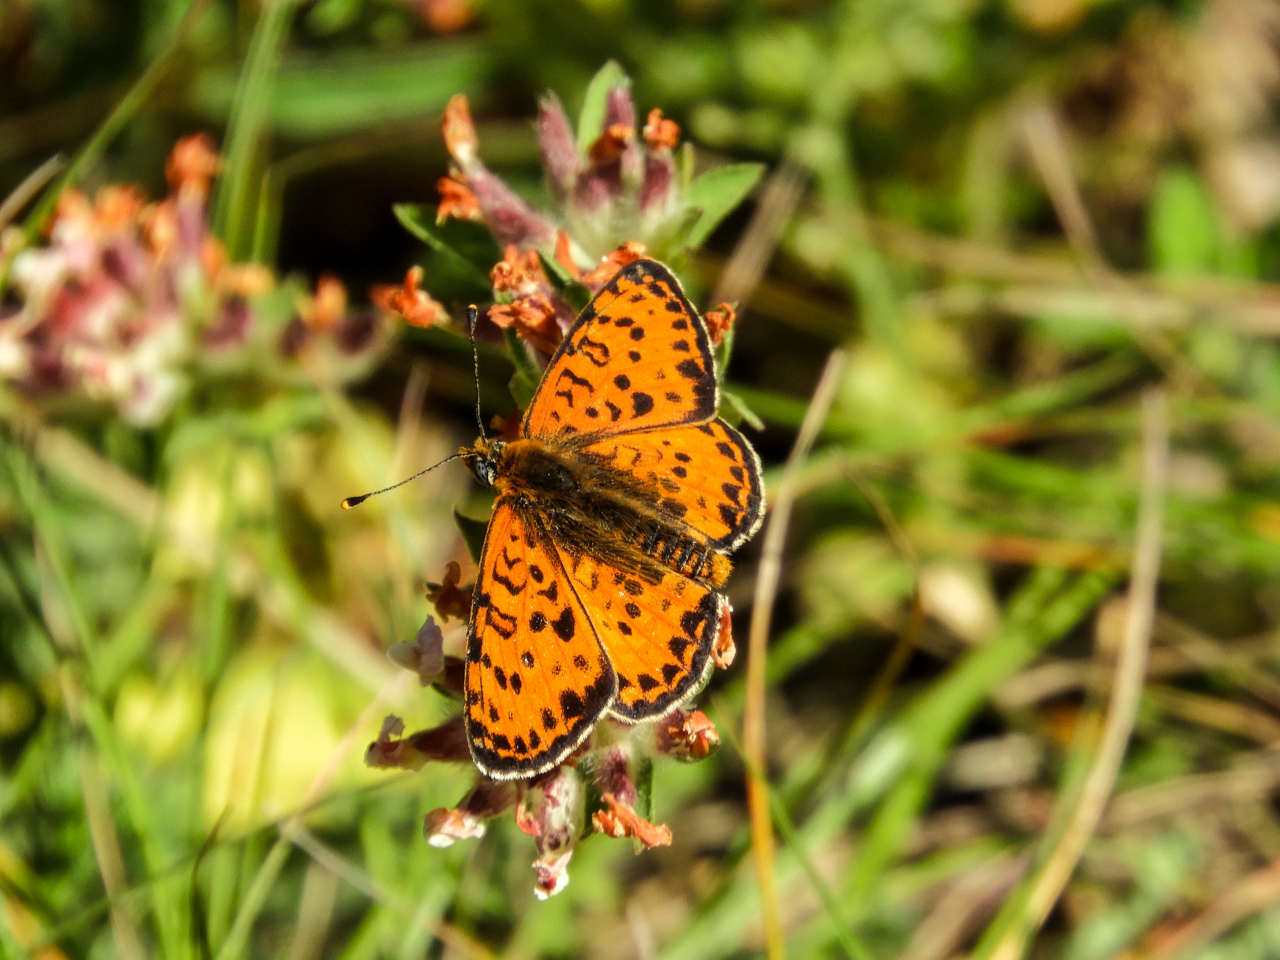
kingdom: Animalia
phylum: Arthropoda
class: Insecta
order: Lepidoptera
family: Nymphalidae
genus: Melitaea
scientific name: Melitaea didyma
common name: Spotted fritillary
